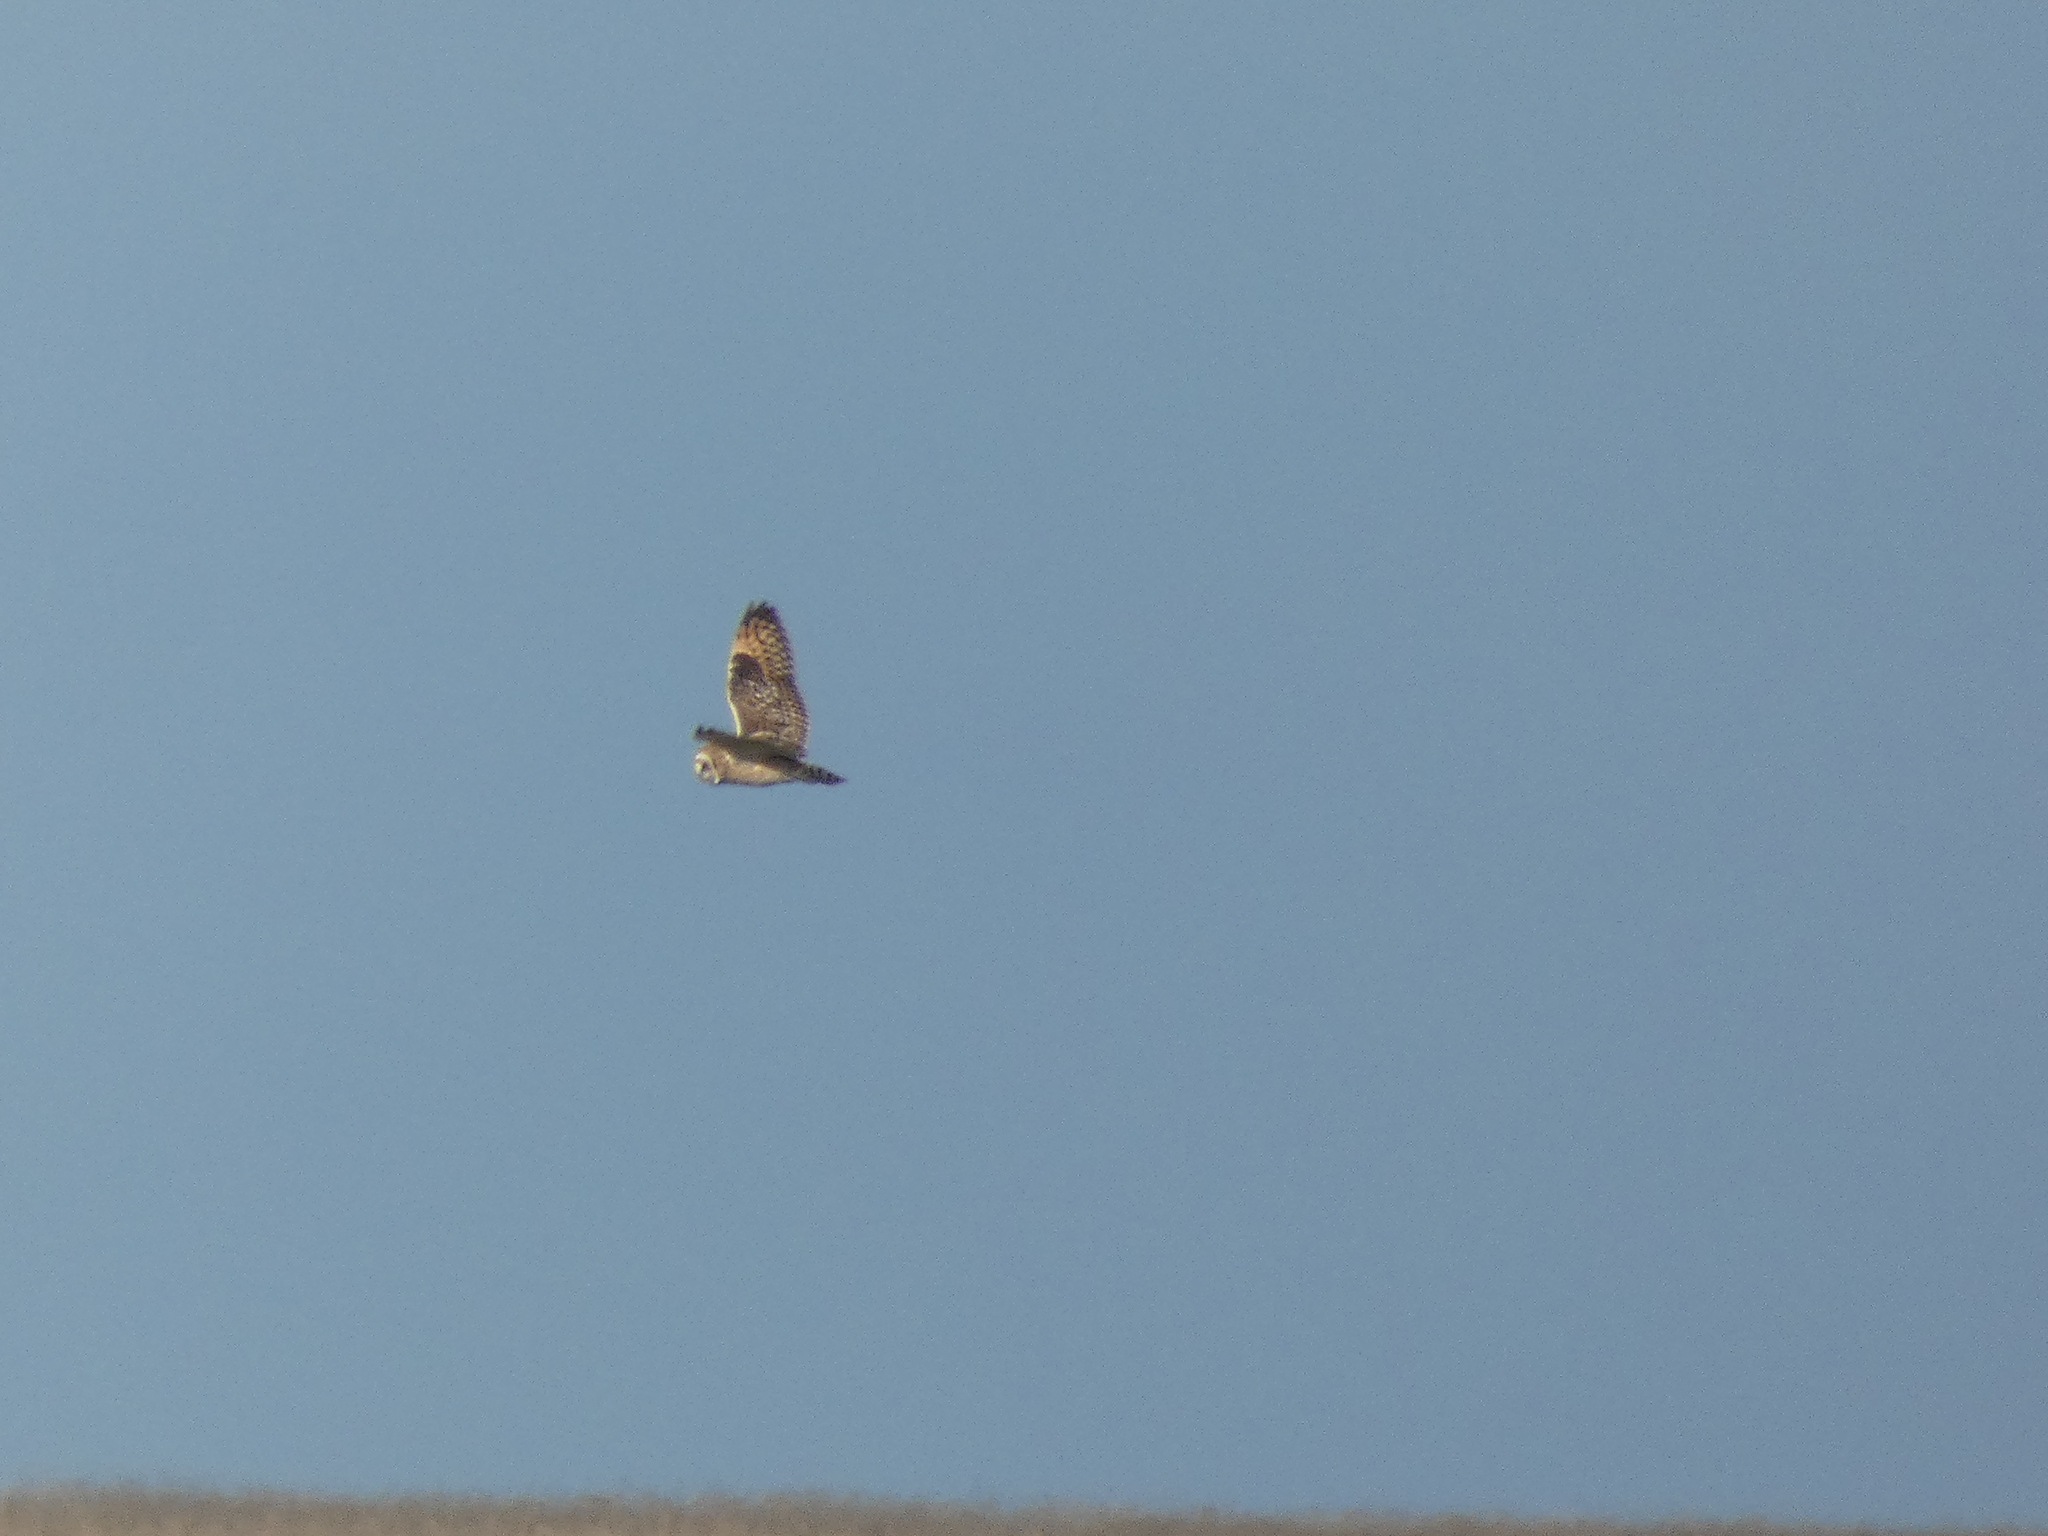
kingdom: Animalia
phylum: Chordata
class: Aves
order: Strigiformes
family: Strigidae
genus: Asio
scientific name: Asio flammeus
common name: Short-eared owl
